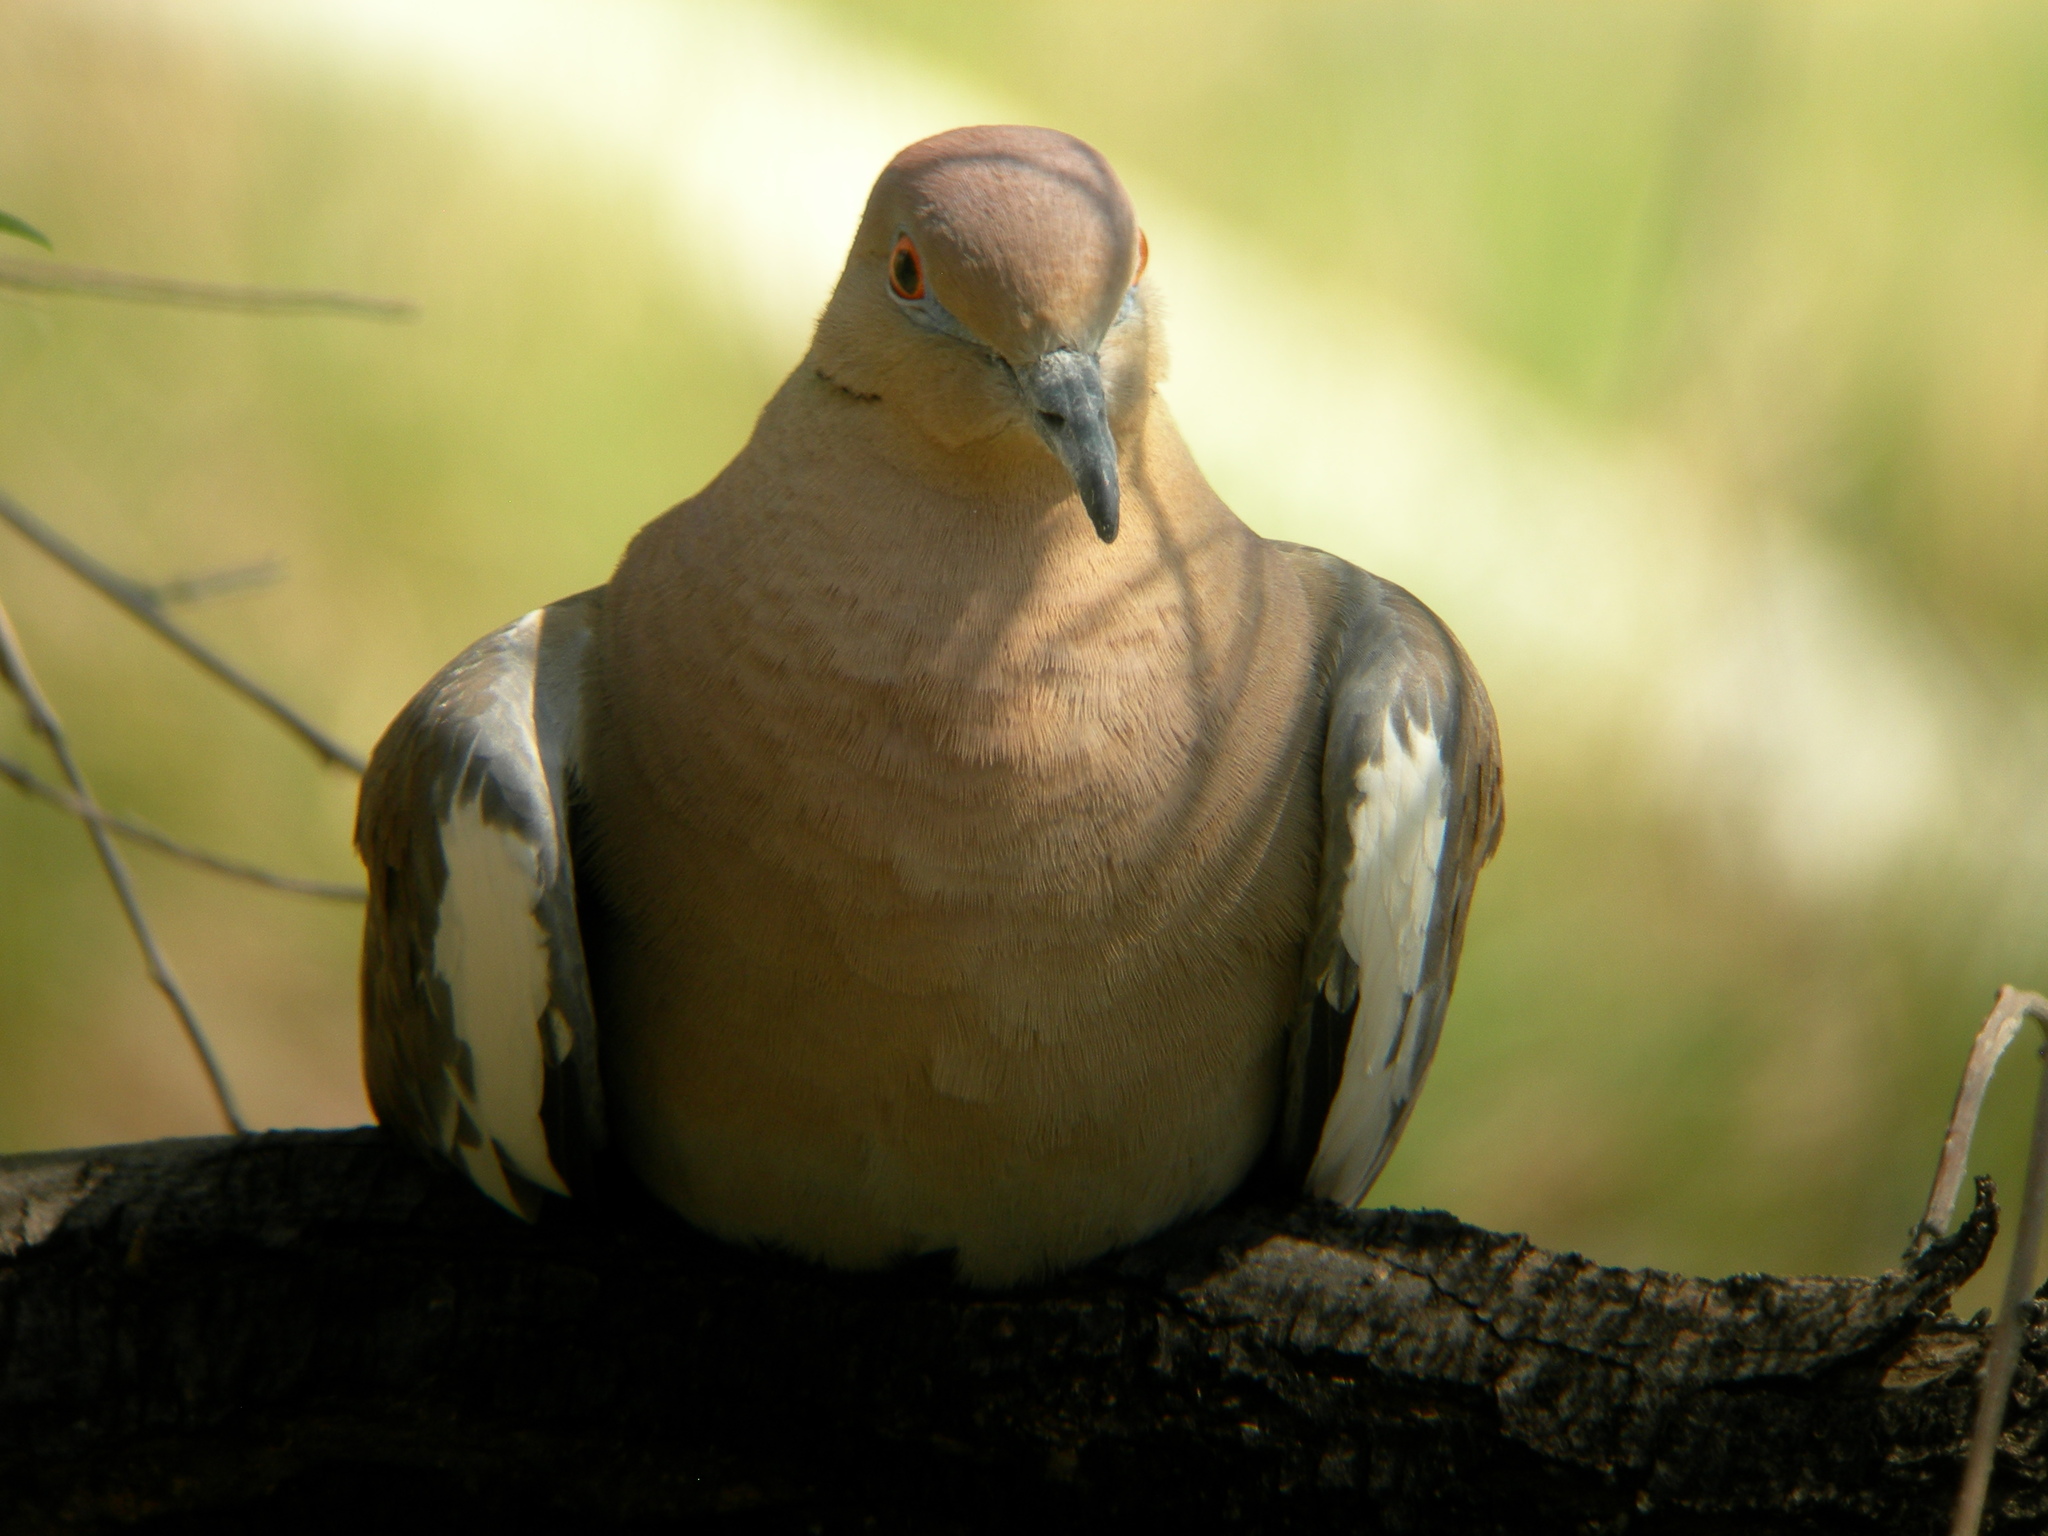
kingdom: Animalia
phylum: Chordata
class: Aves
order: Columbiformes
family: Columbidae
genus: Zenaida
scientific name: Zenaida asiatica
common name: White-winged dove
